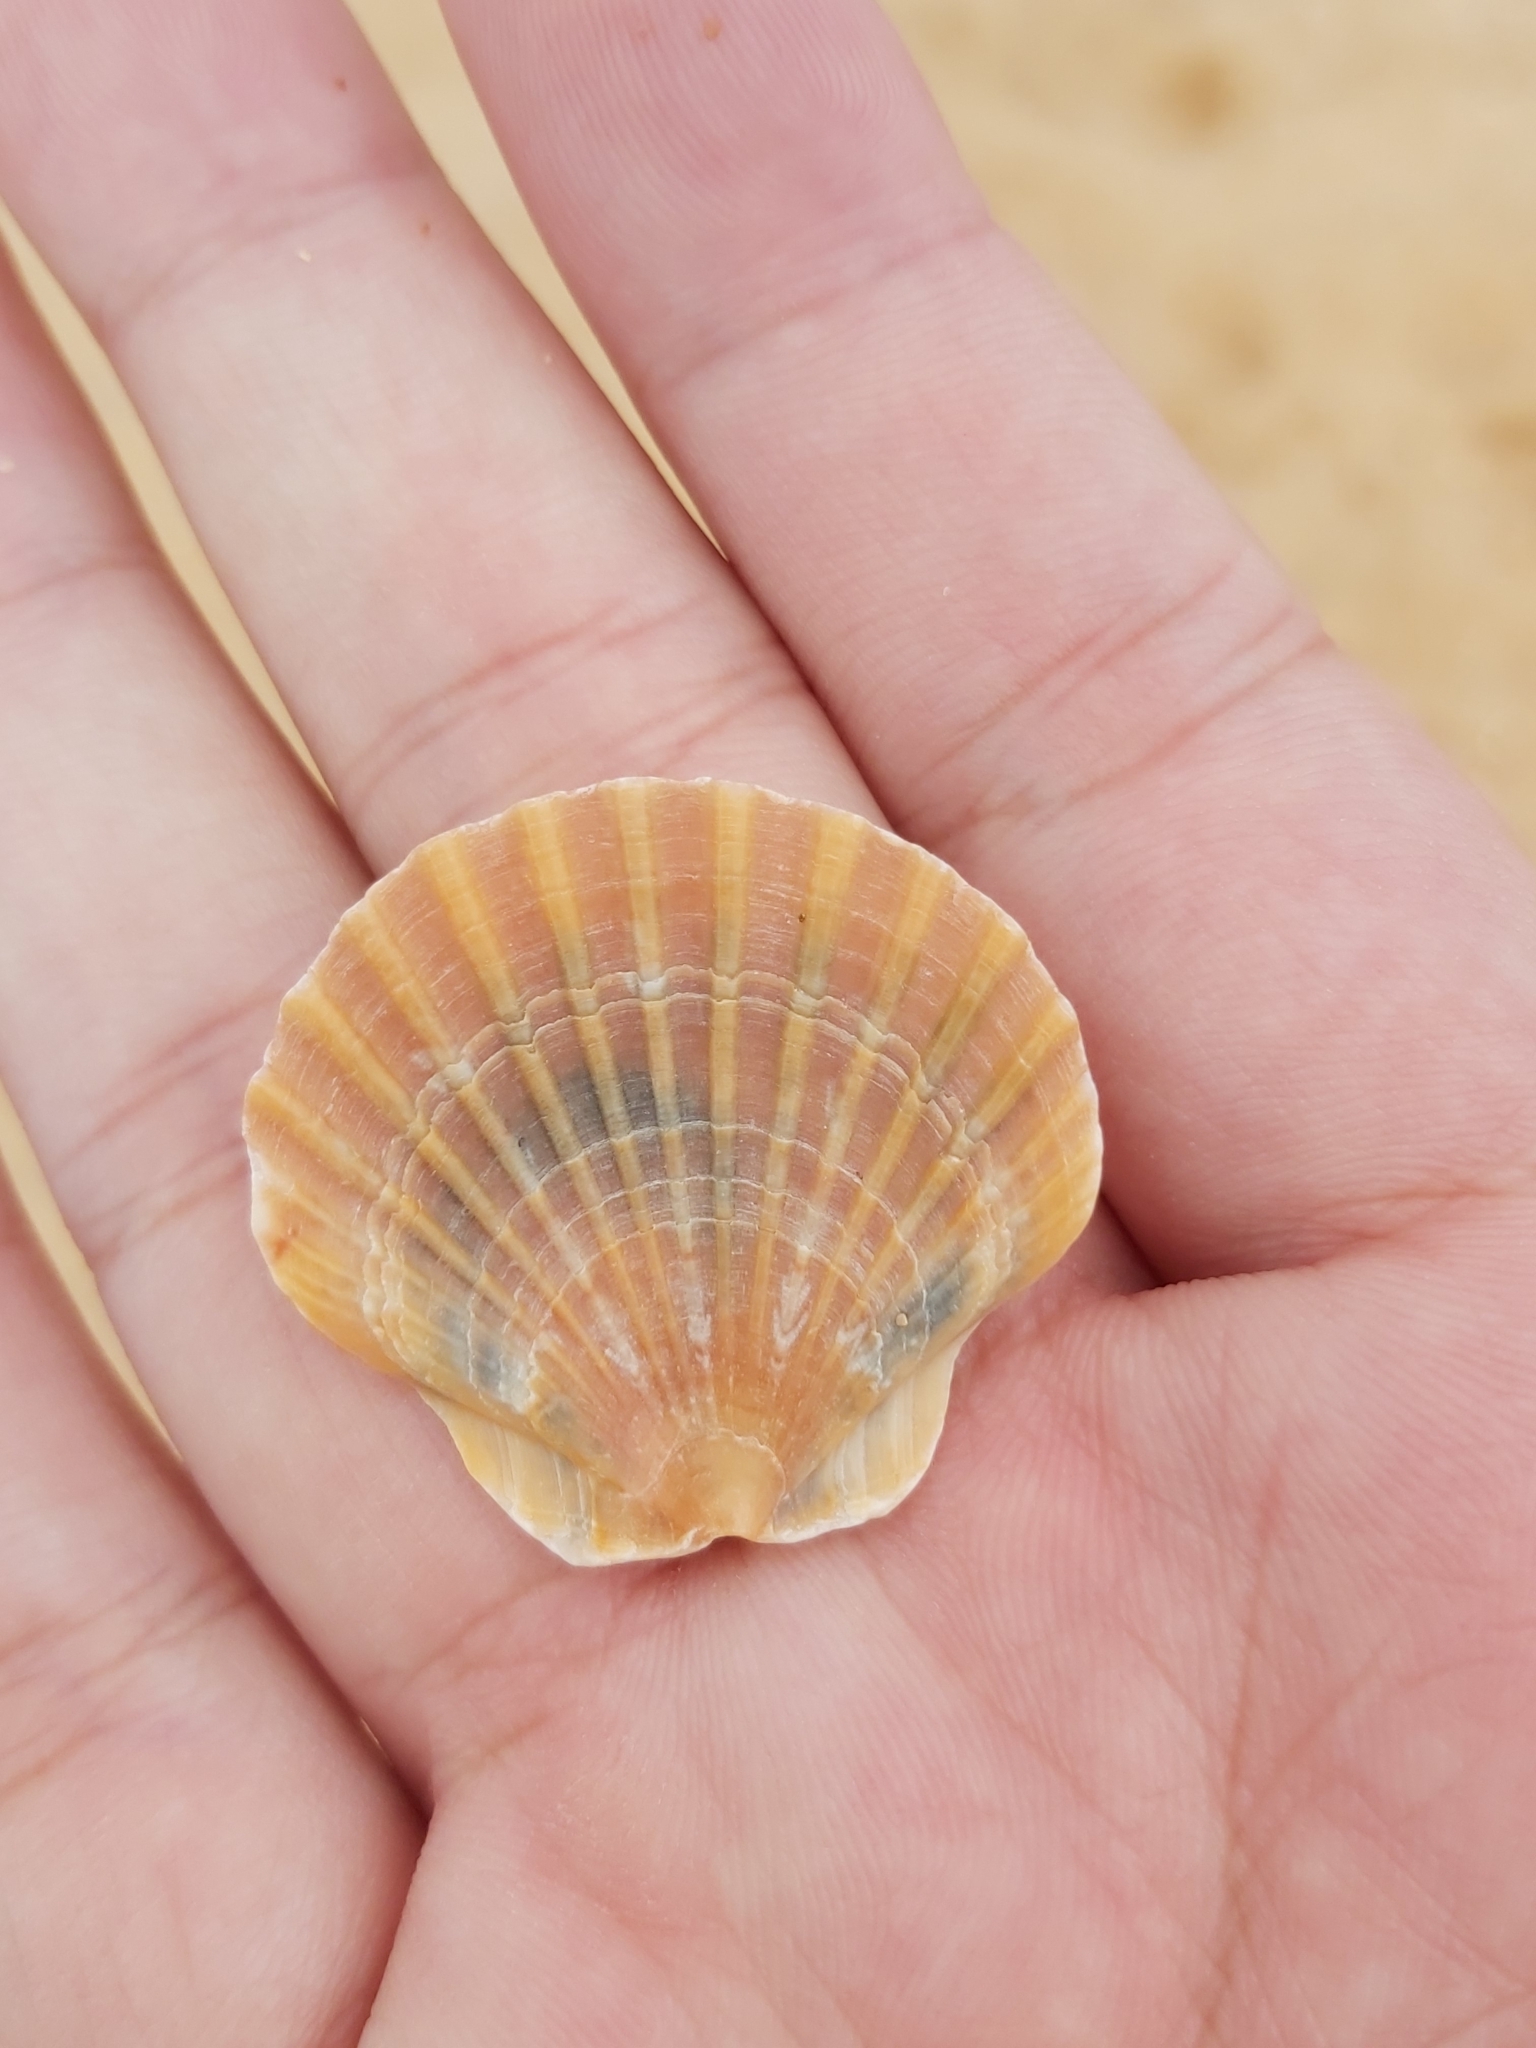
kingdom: Animalia
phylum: Mollusca
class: Bivalvia
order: Pectinida
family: Pectinidae
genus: Pecten
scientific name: Pecten fumatus
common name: Australian scallop
